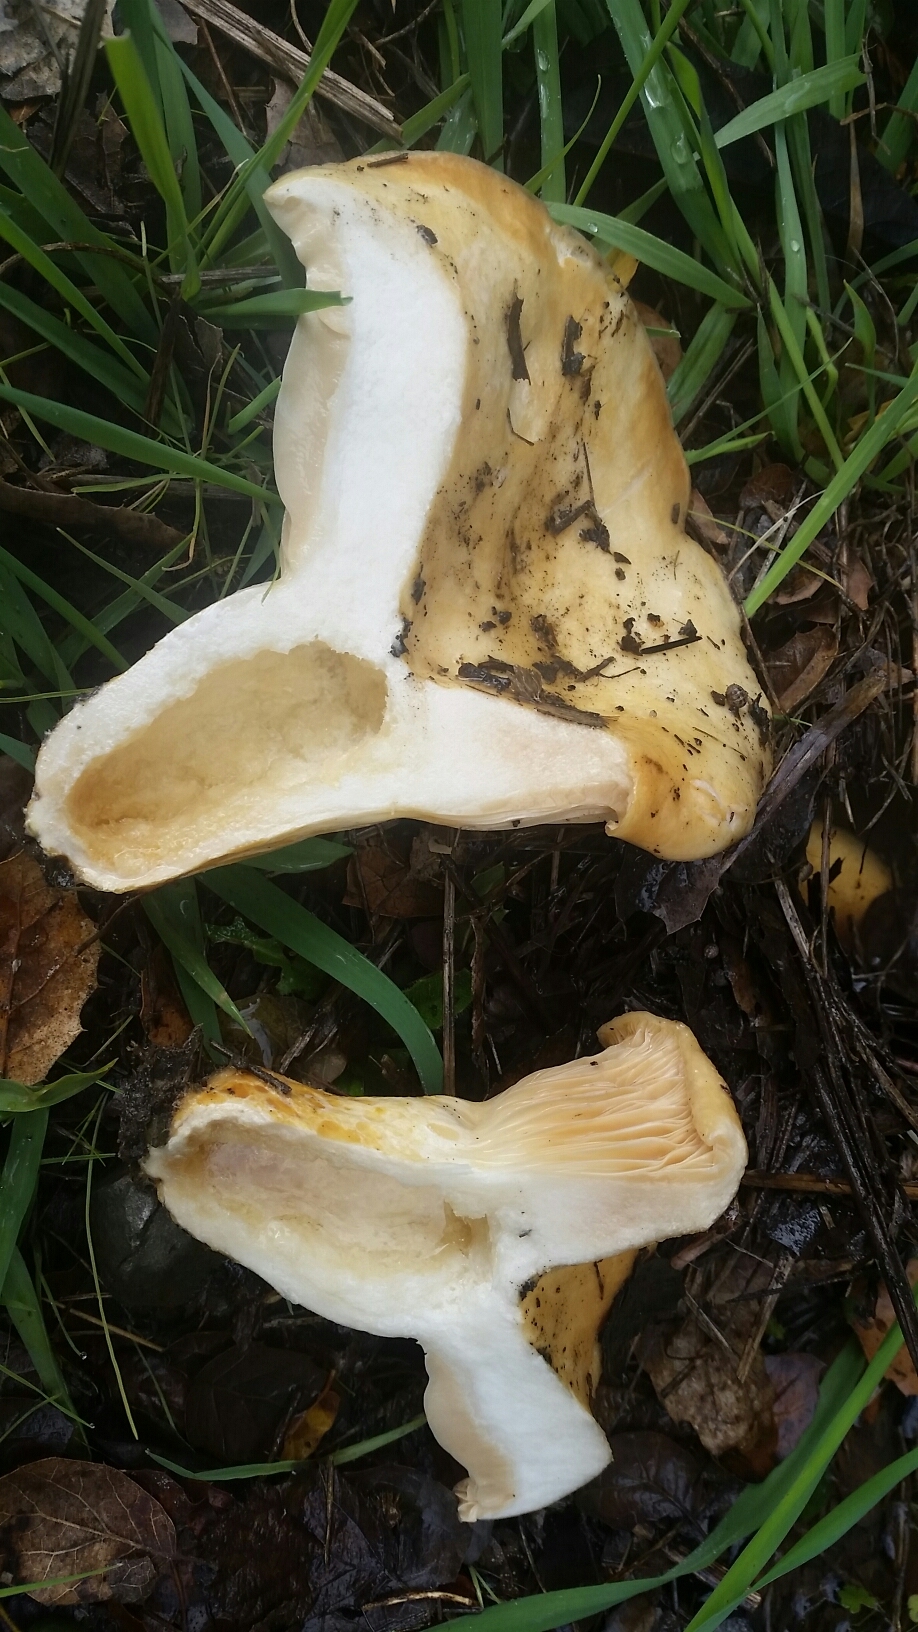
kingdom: Fungi
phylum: Basidiomycota
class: Agaricomycetes
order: Russulales
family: Russulaceae
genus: Lactarius
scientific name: Lactarius alnicola
